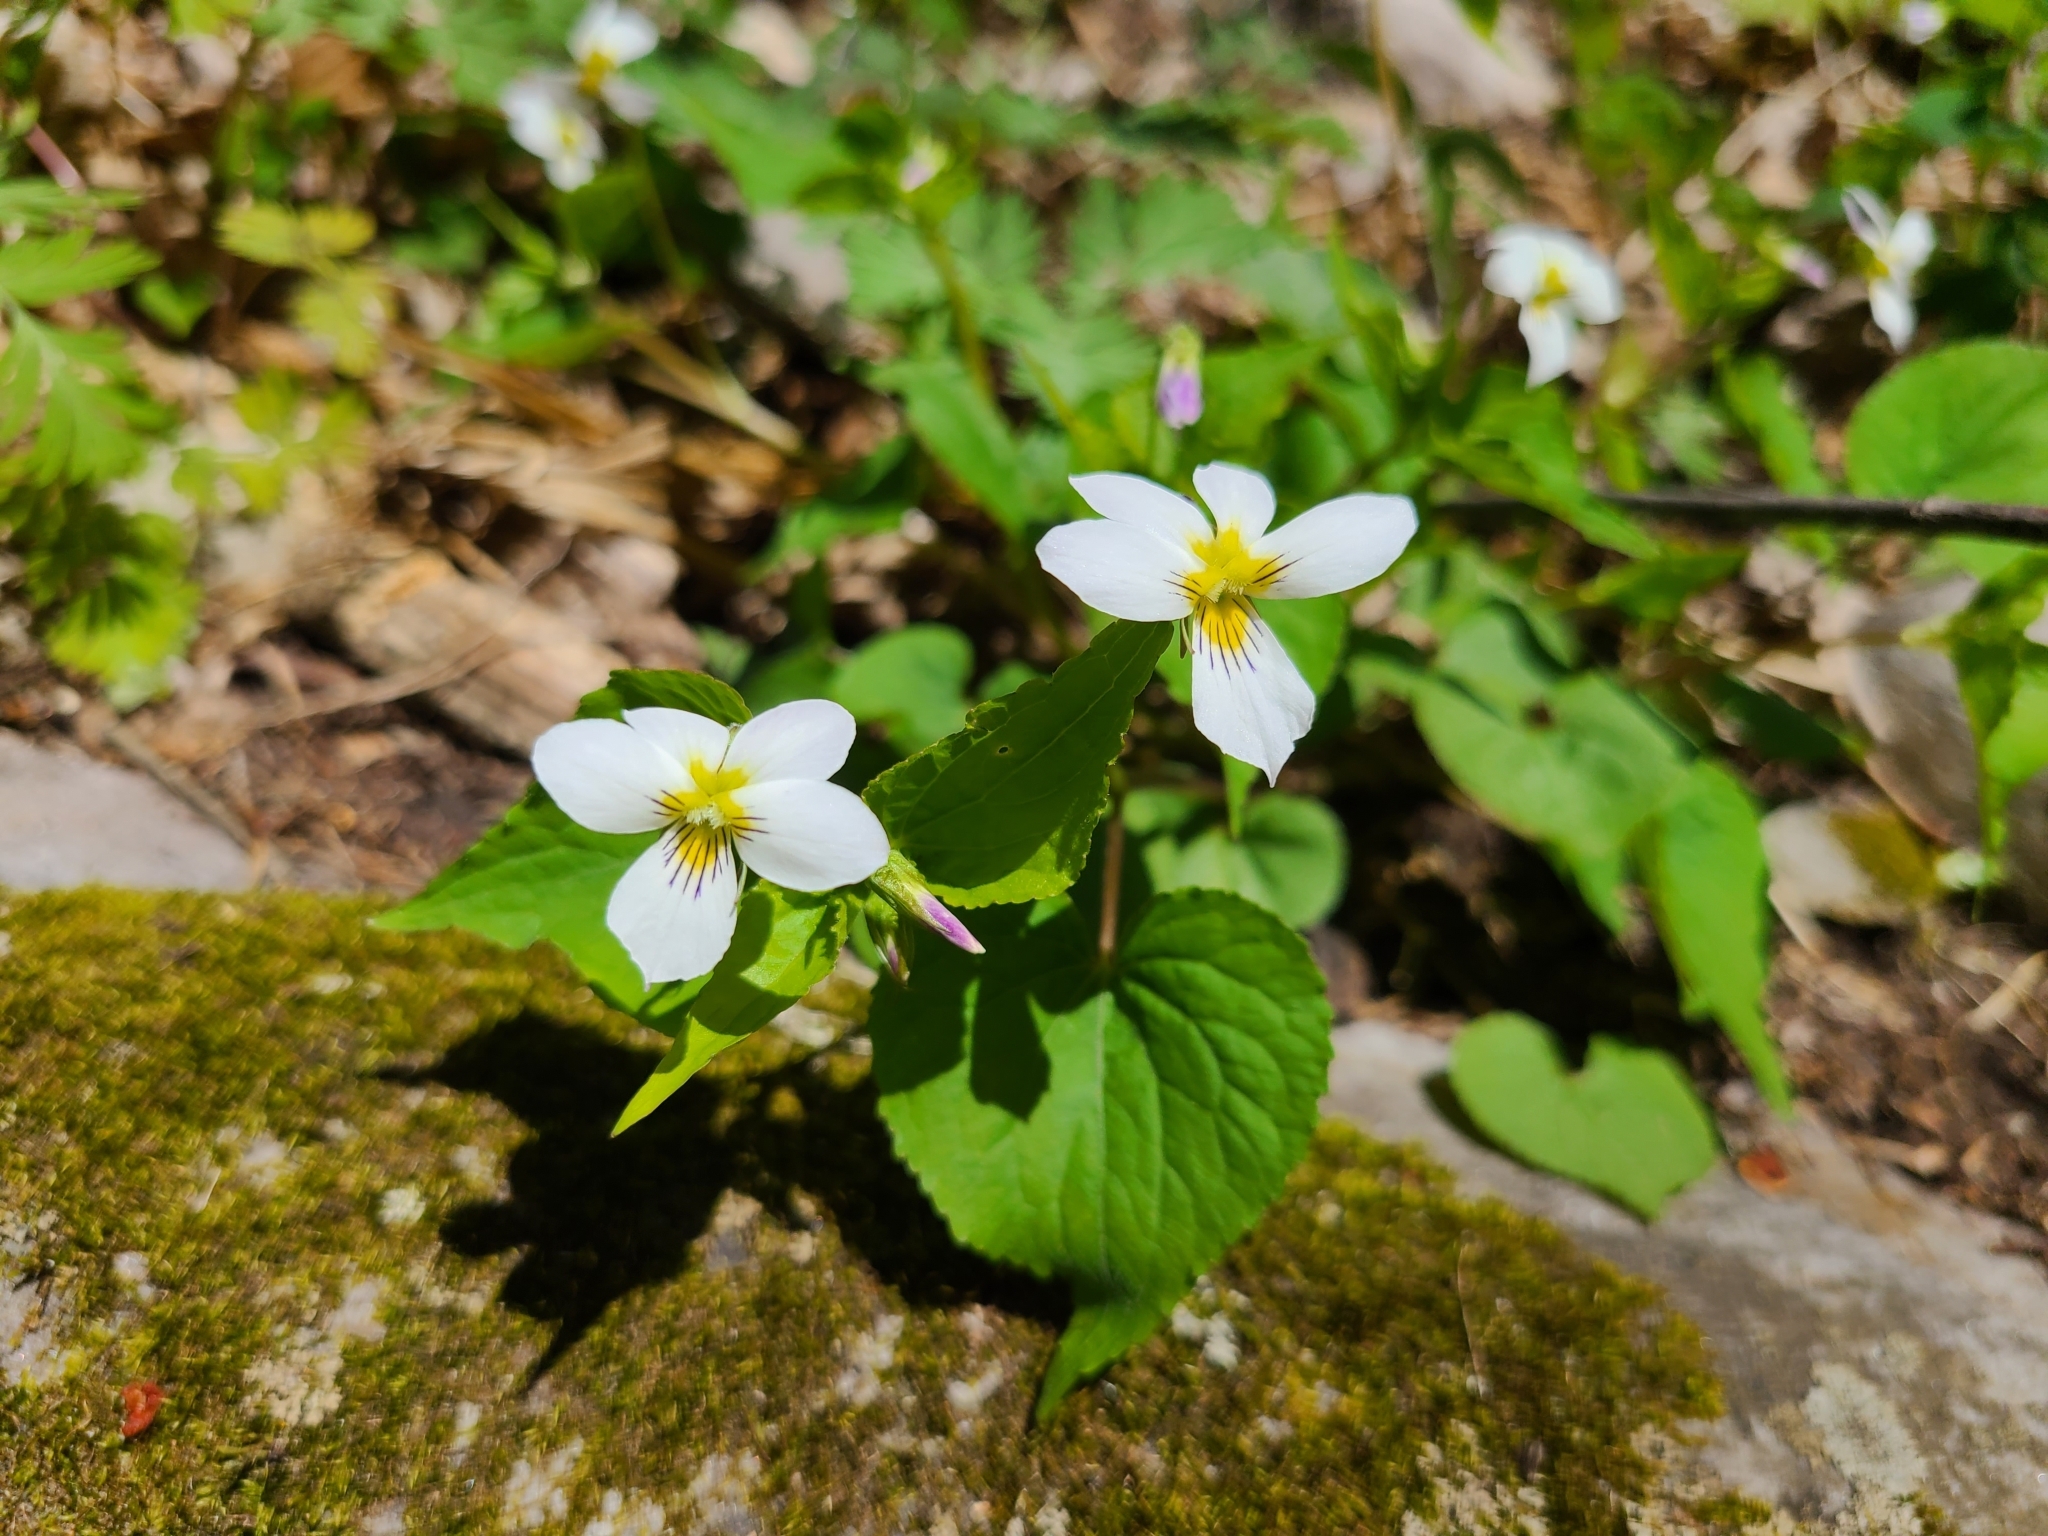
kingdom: Plantae
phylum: Tracheophyta
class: Magnoliopsida
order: Malpighiales
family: Violaceae
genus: Viola
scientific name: Viola canadensis
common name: Canada violet
